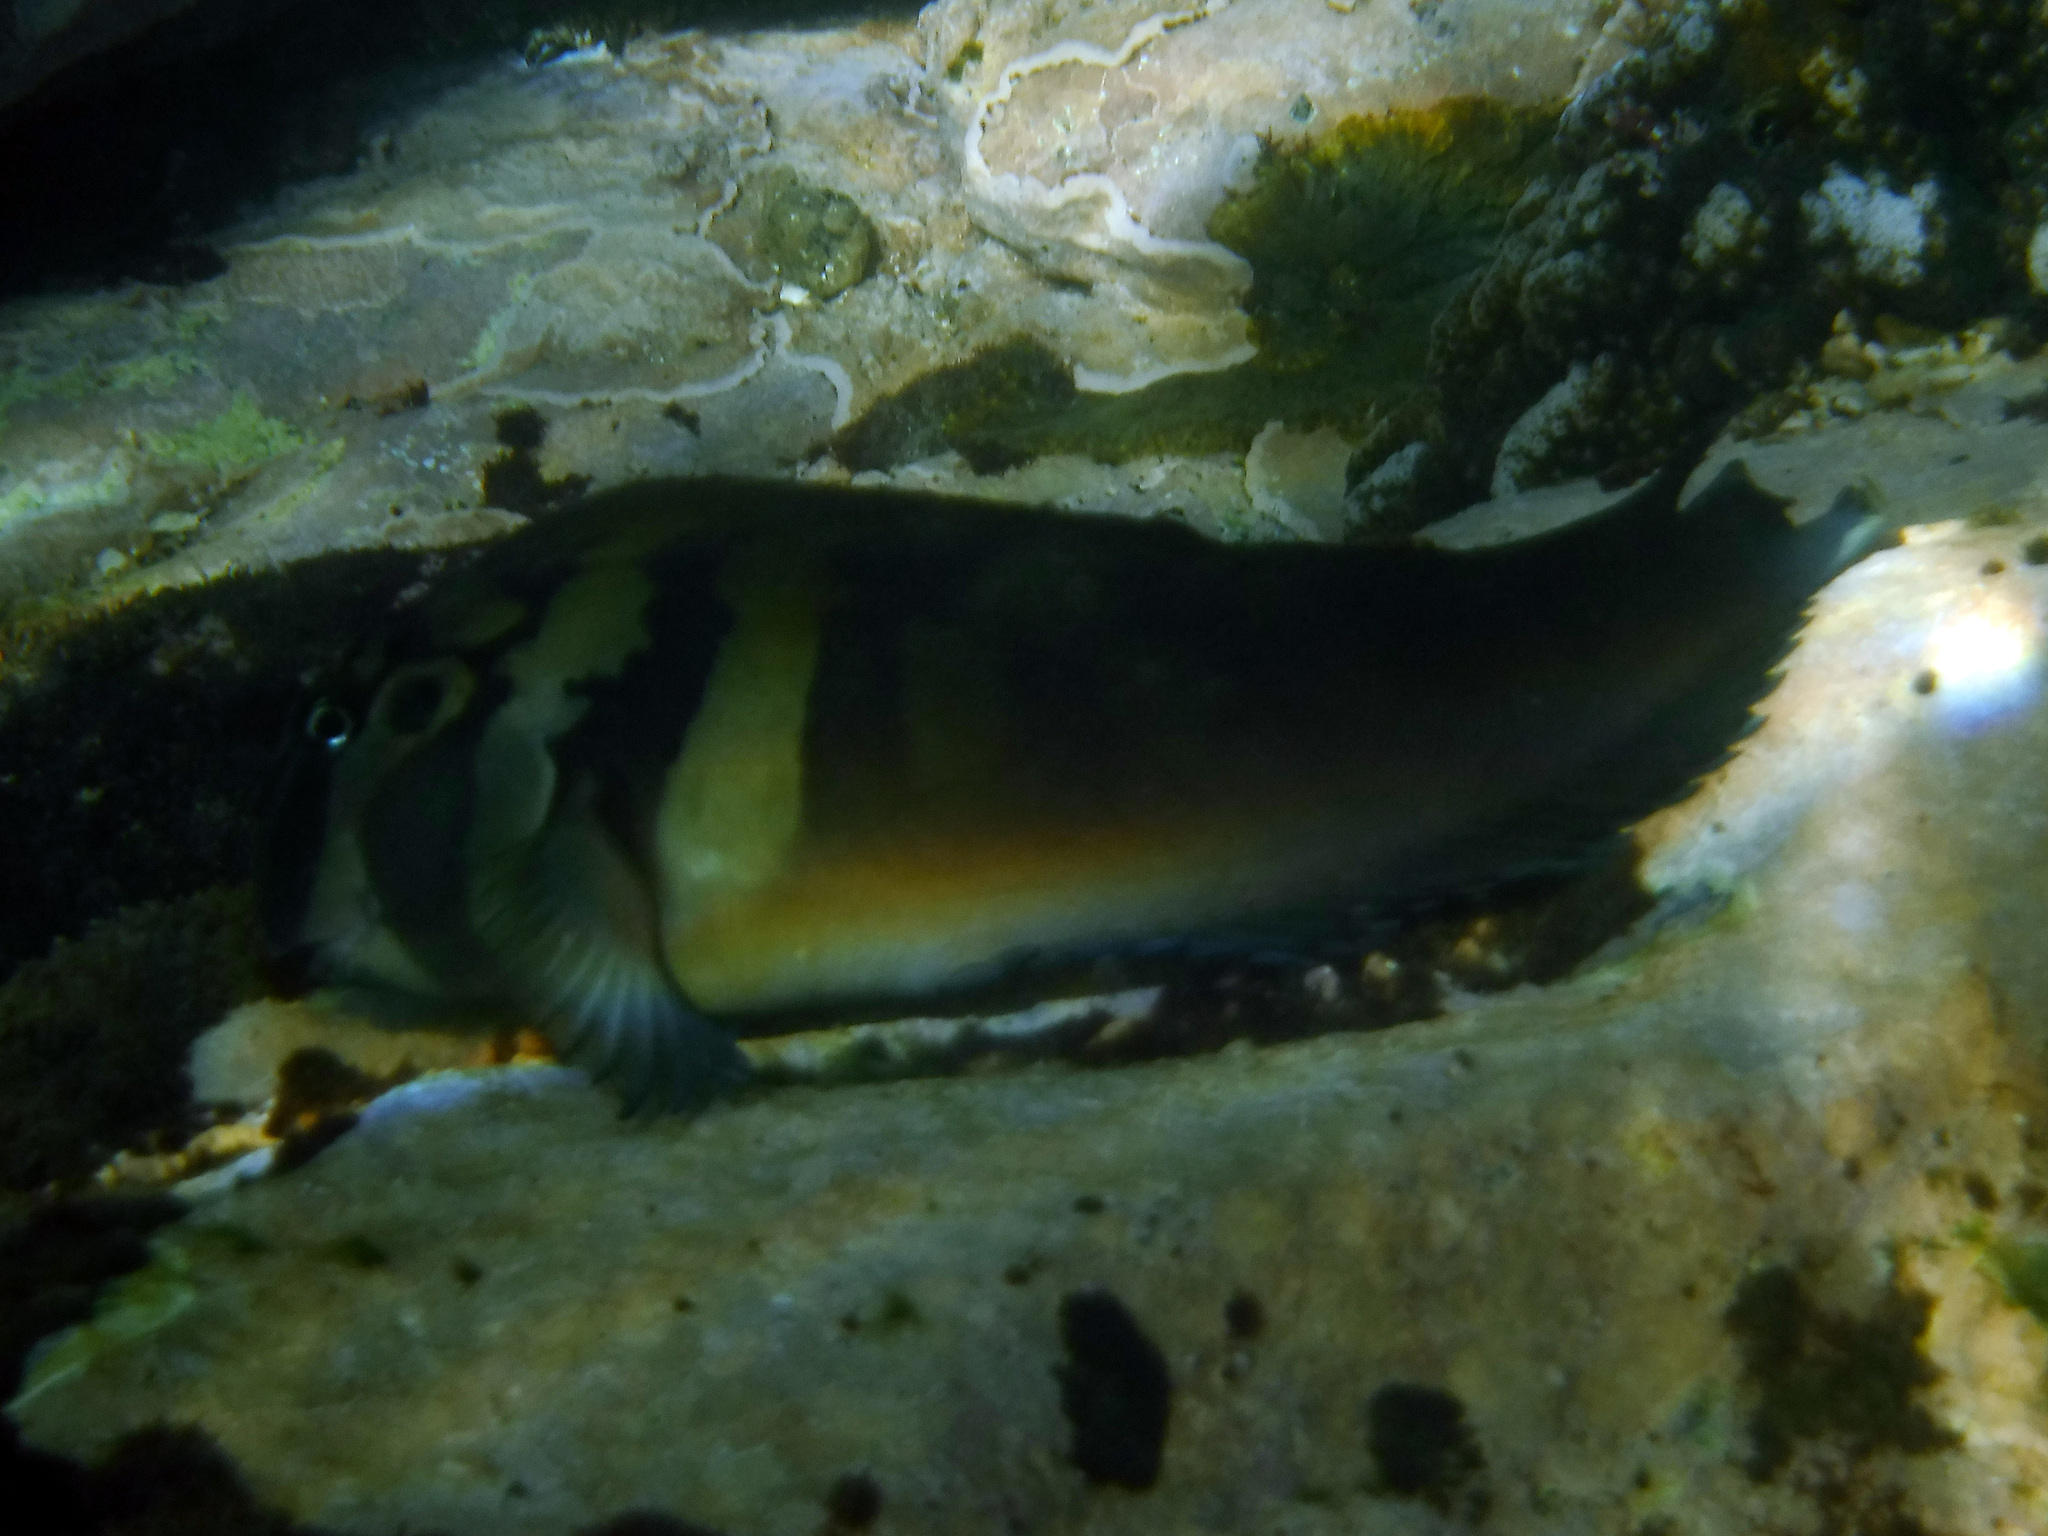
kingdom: Animalia
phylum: Chordata
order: Perciformes
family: Blenniidae
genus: Ophioblennius
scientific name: Ophioblennius steindachneri
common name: Panamic fanged blenny
